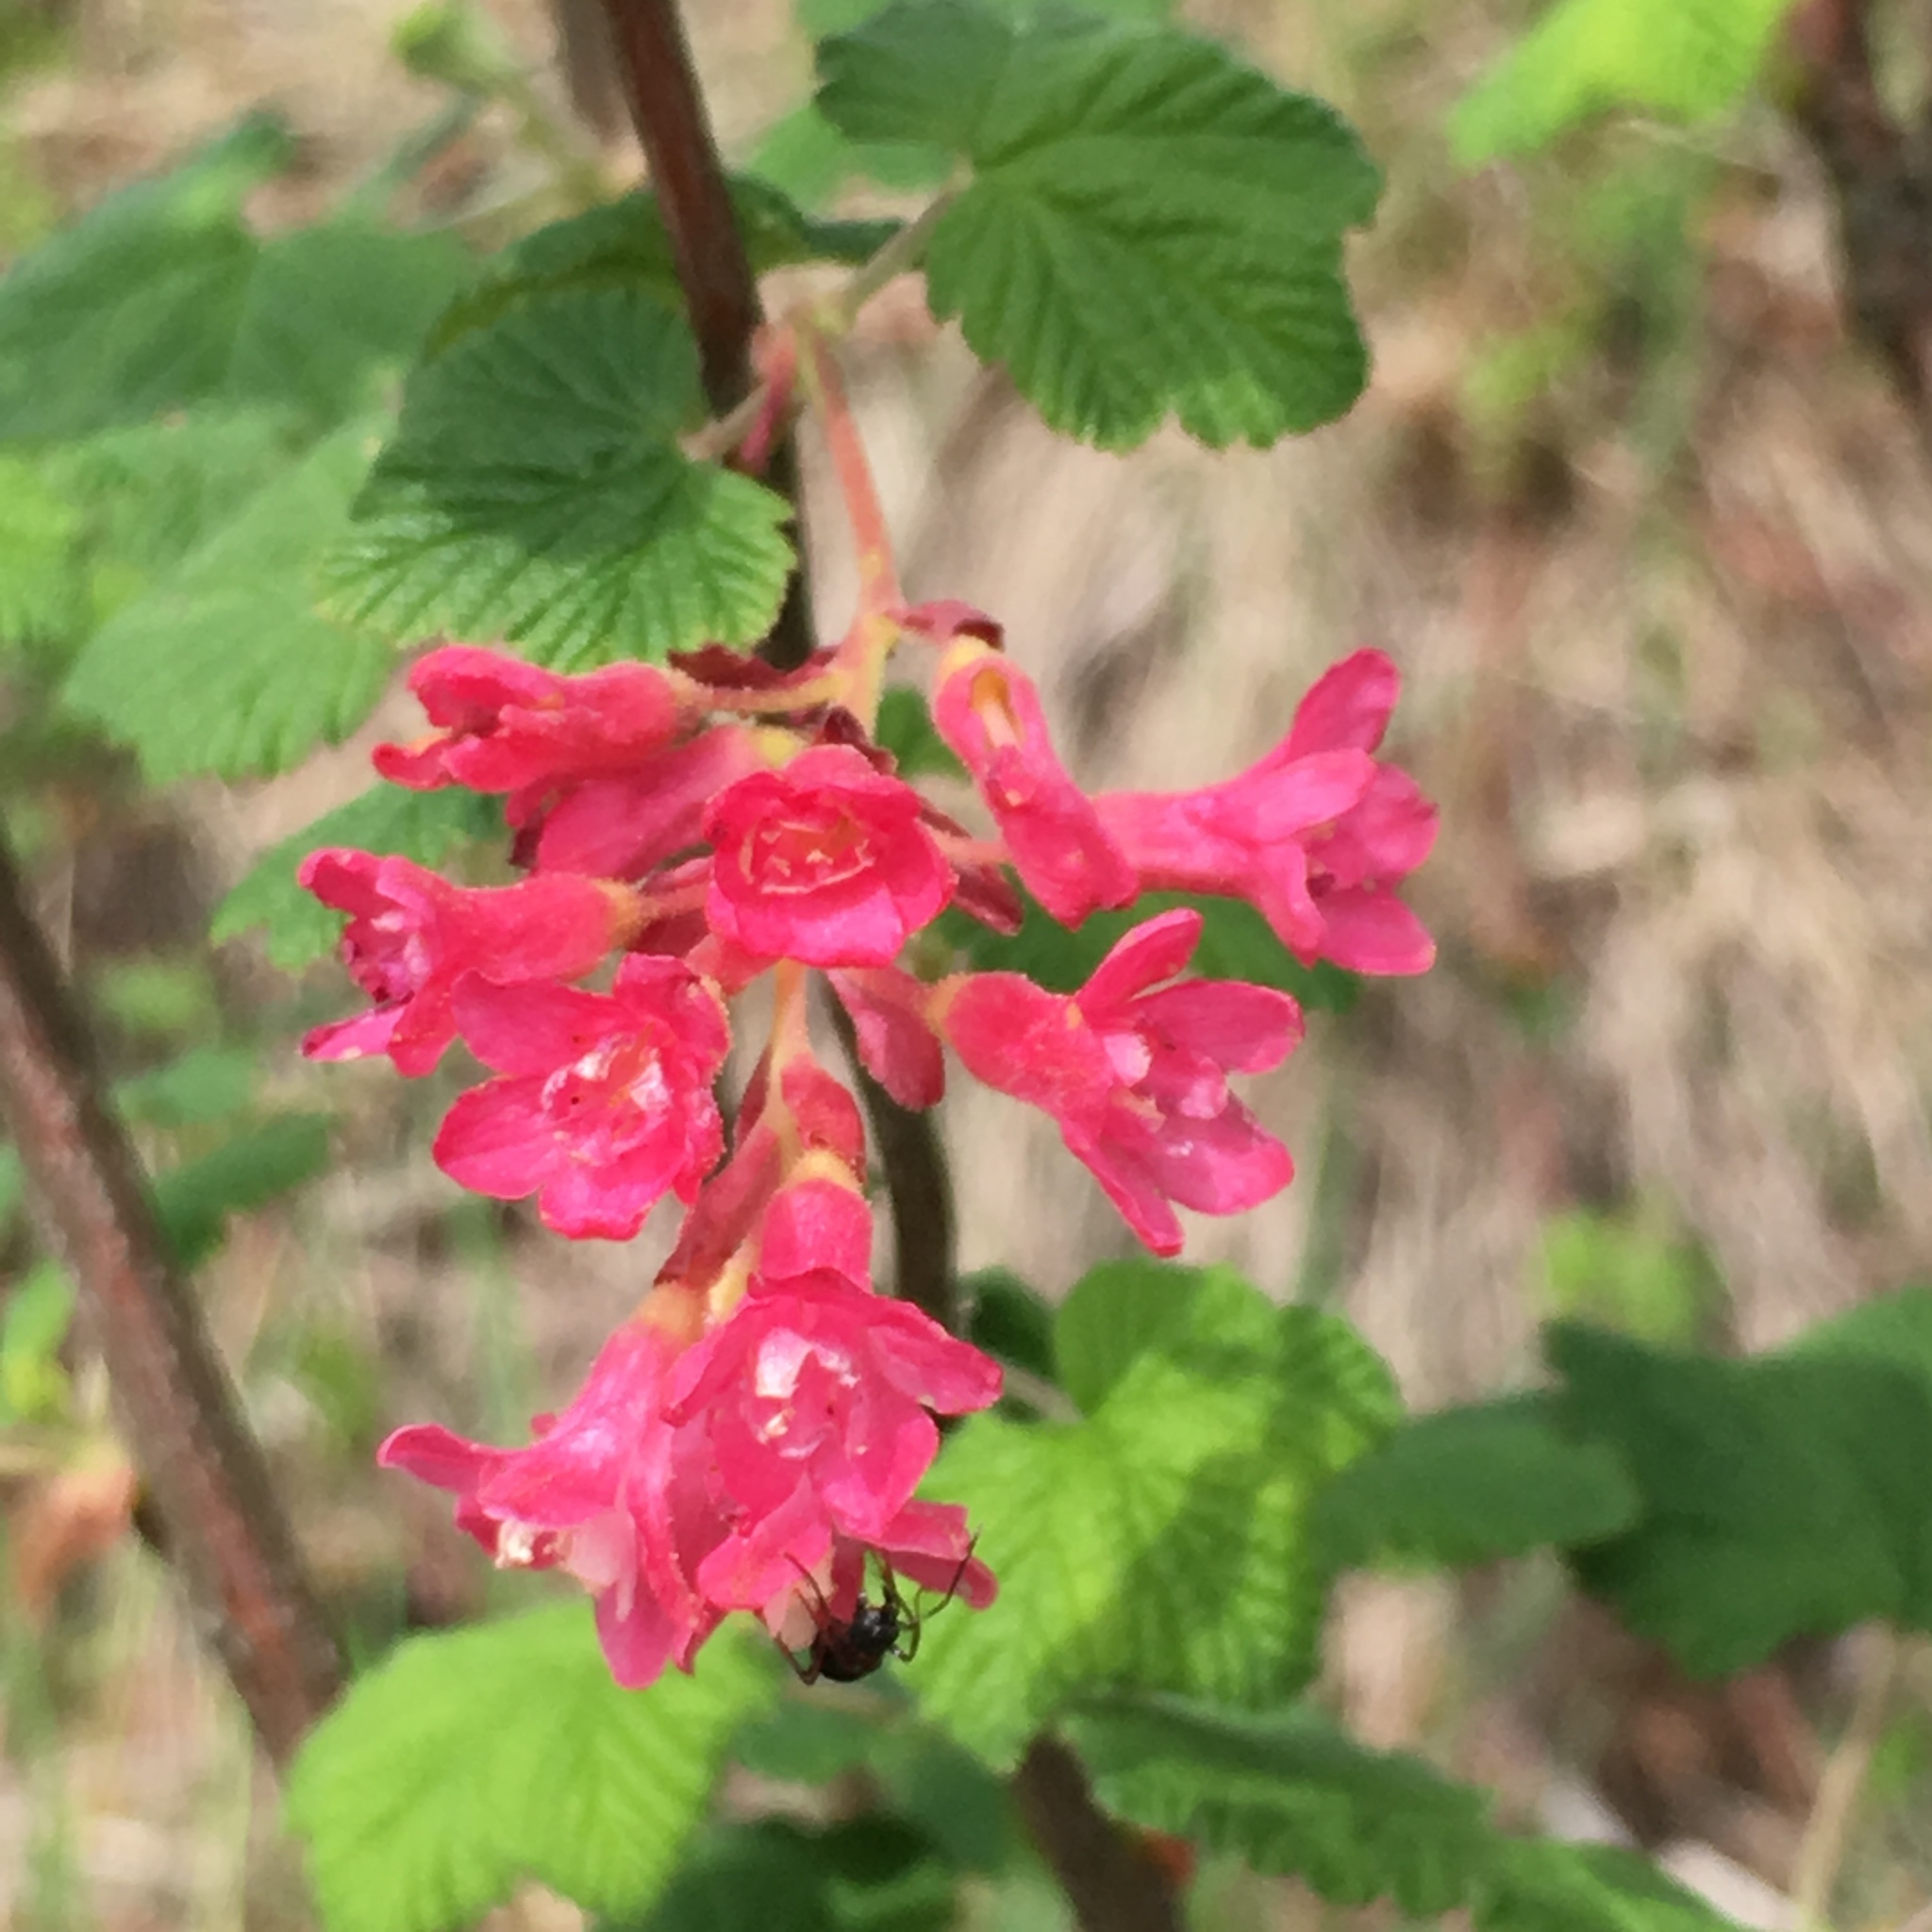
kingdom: Plantae
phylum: Tracheophyta
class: Magnoliopsida
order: Saxifragales
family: Grossulariaceae
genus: Ribes
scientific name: Ribes sanguineum
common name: Flowering currant
